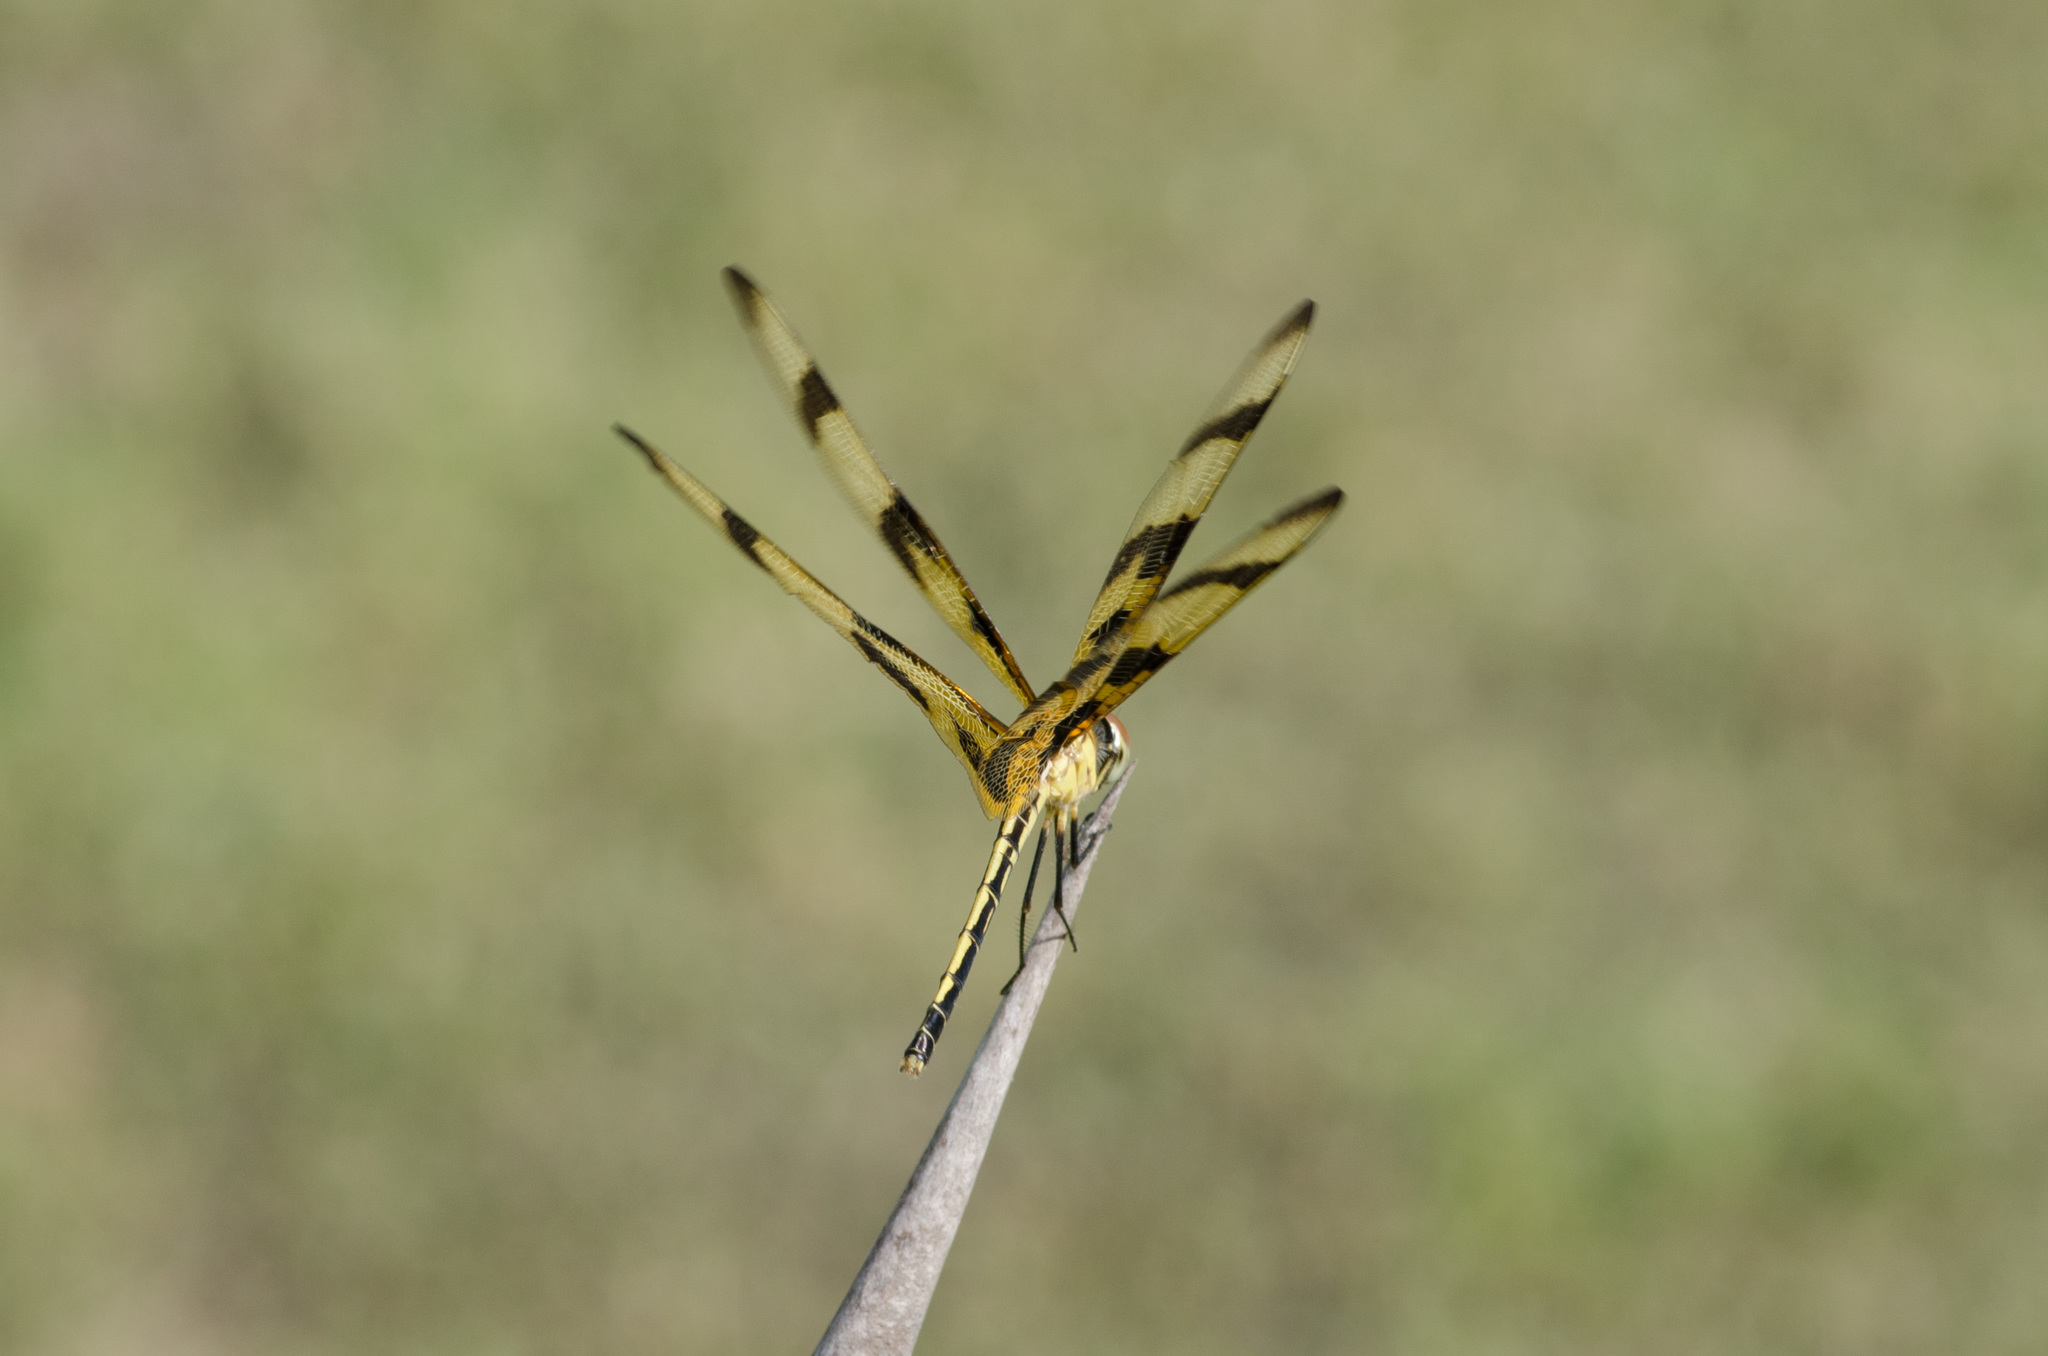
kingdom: Animalia
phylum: Arthropoda
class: Insecta
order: Odonata
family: Libellulidae
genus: Celithemis
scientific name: Celithemis eponina
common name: Halloween pennant
